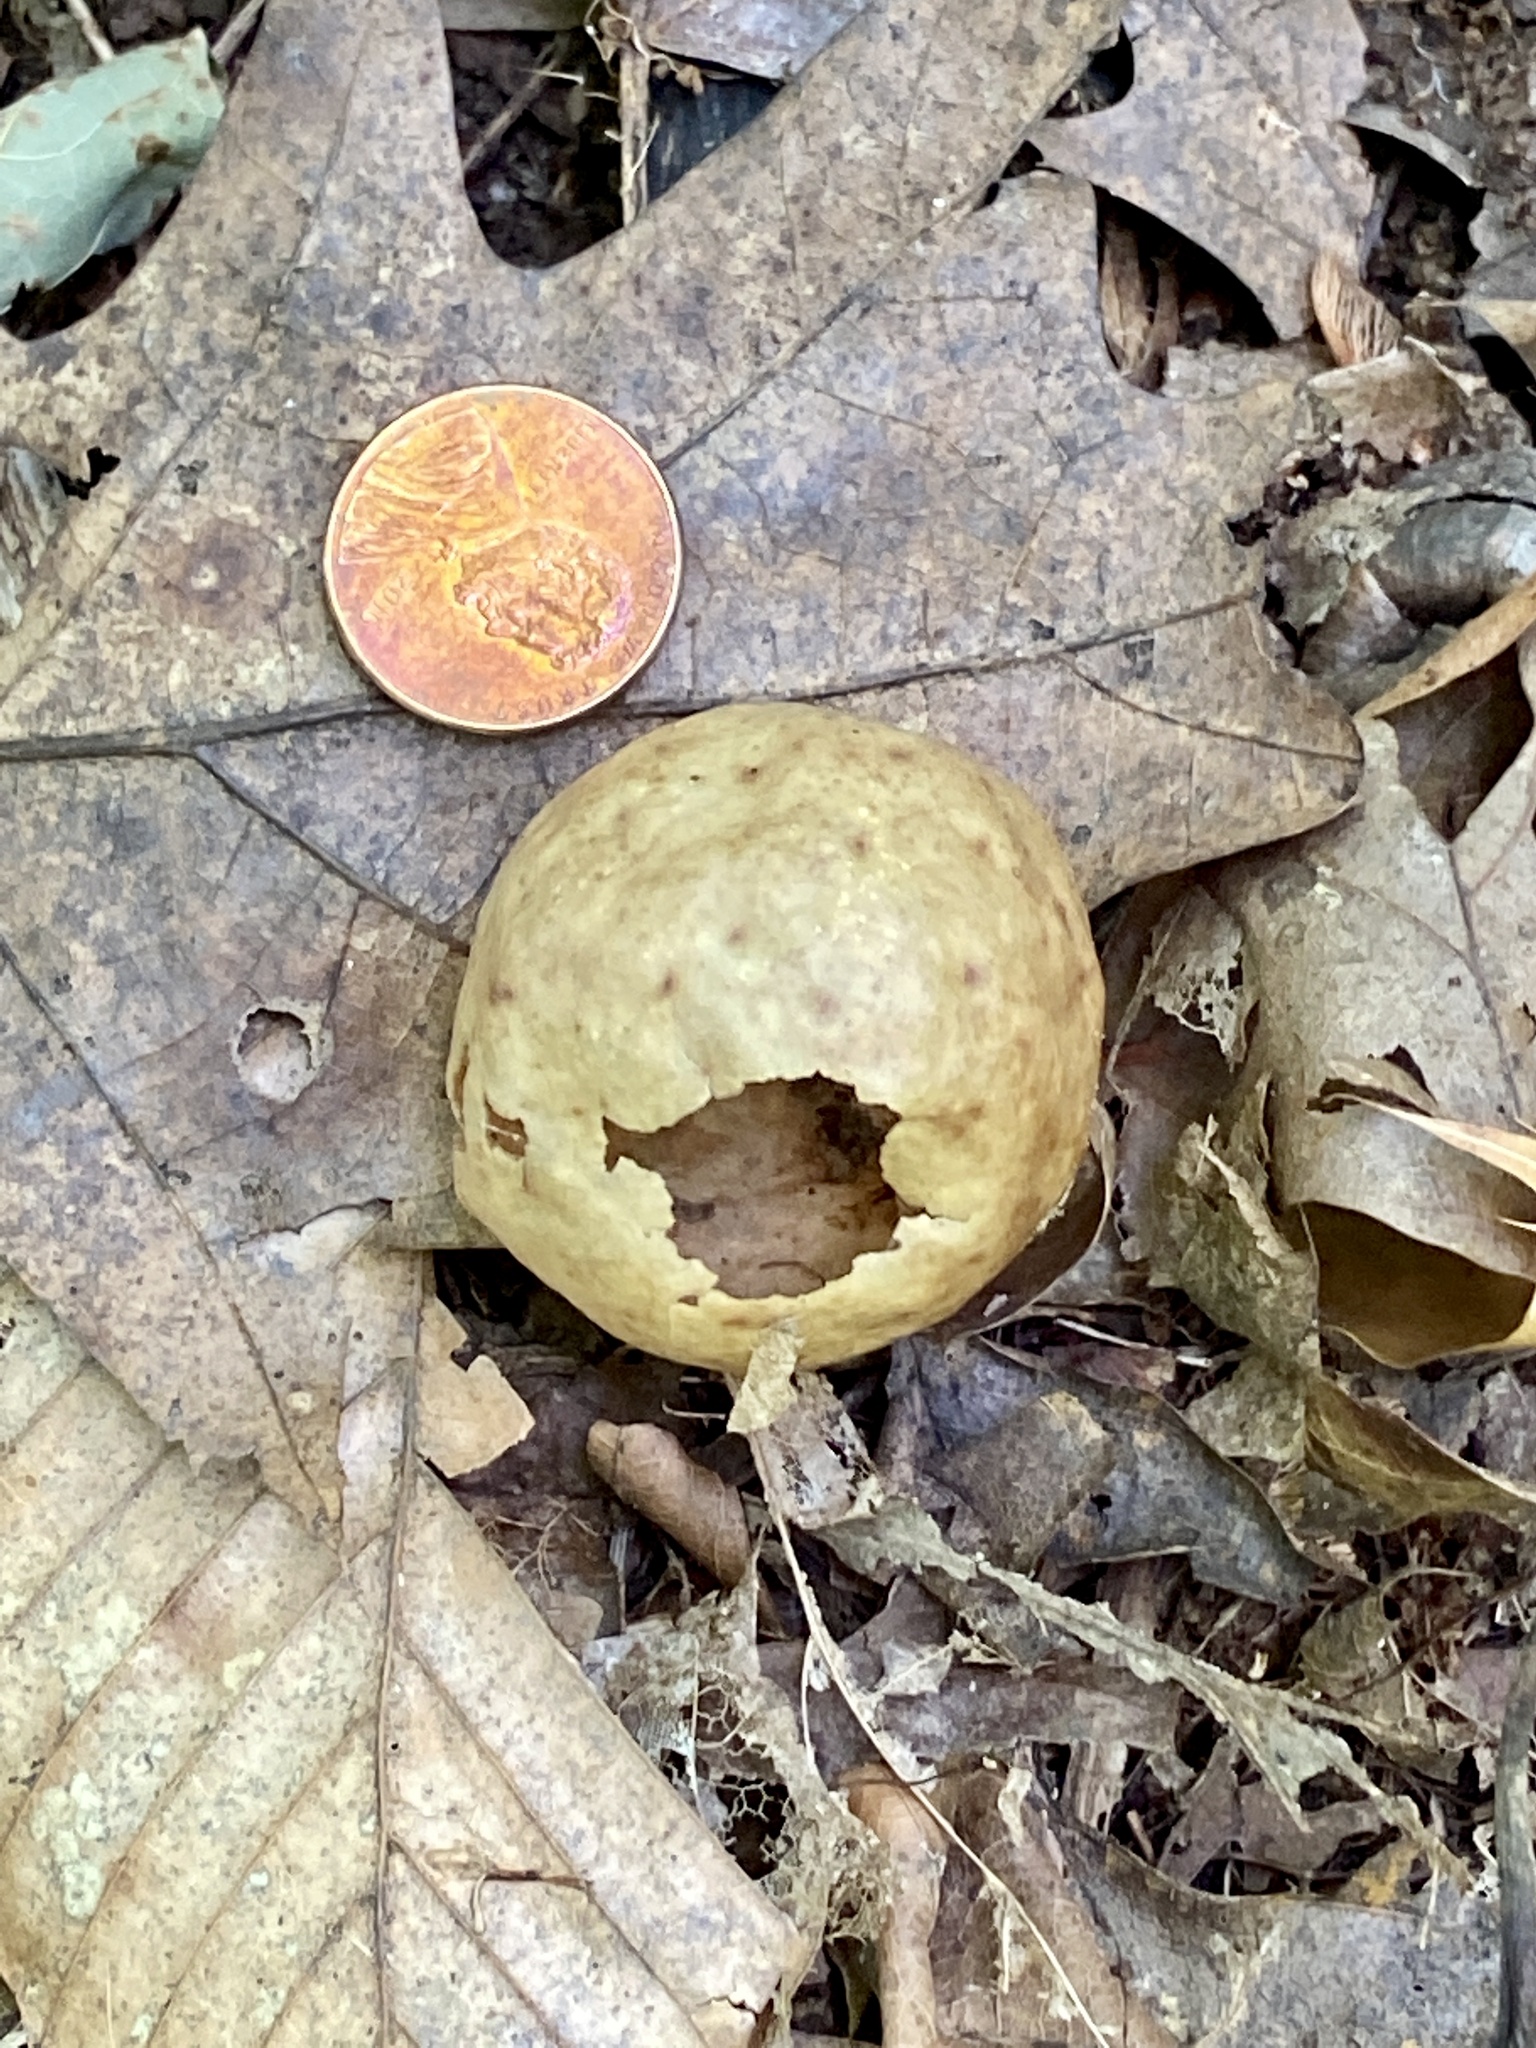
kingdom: Animalia
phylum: Arthropoda
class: Insecta
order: Hymenoptera
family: Cynipidae
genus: Amphibolips
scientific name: Amphibolips
